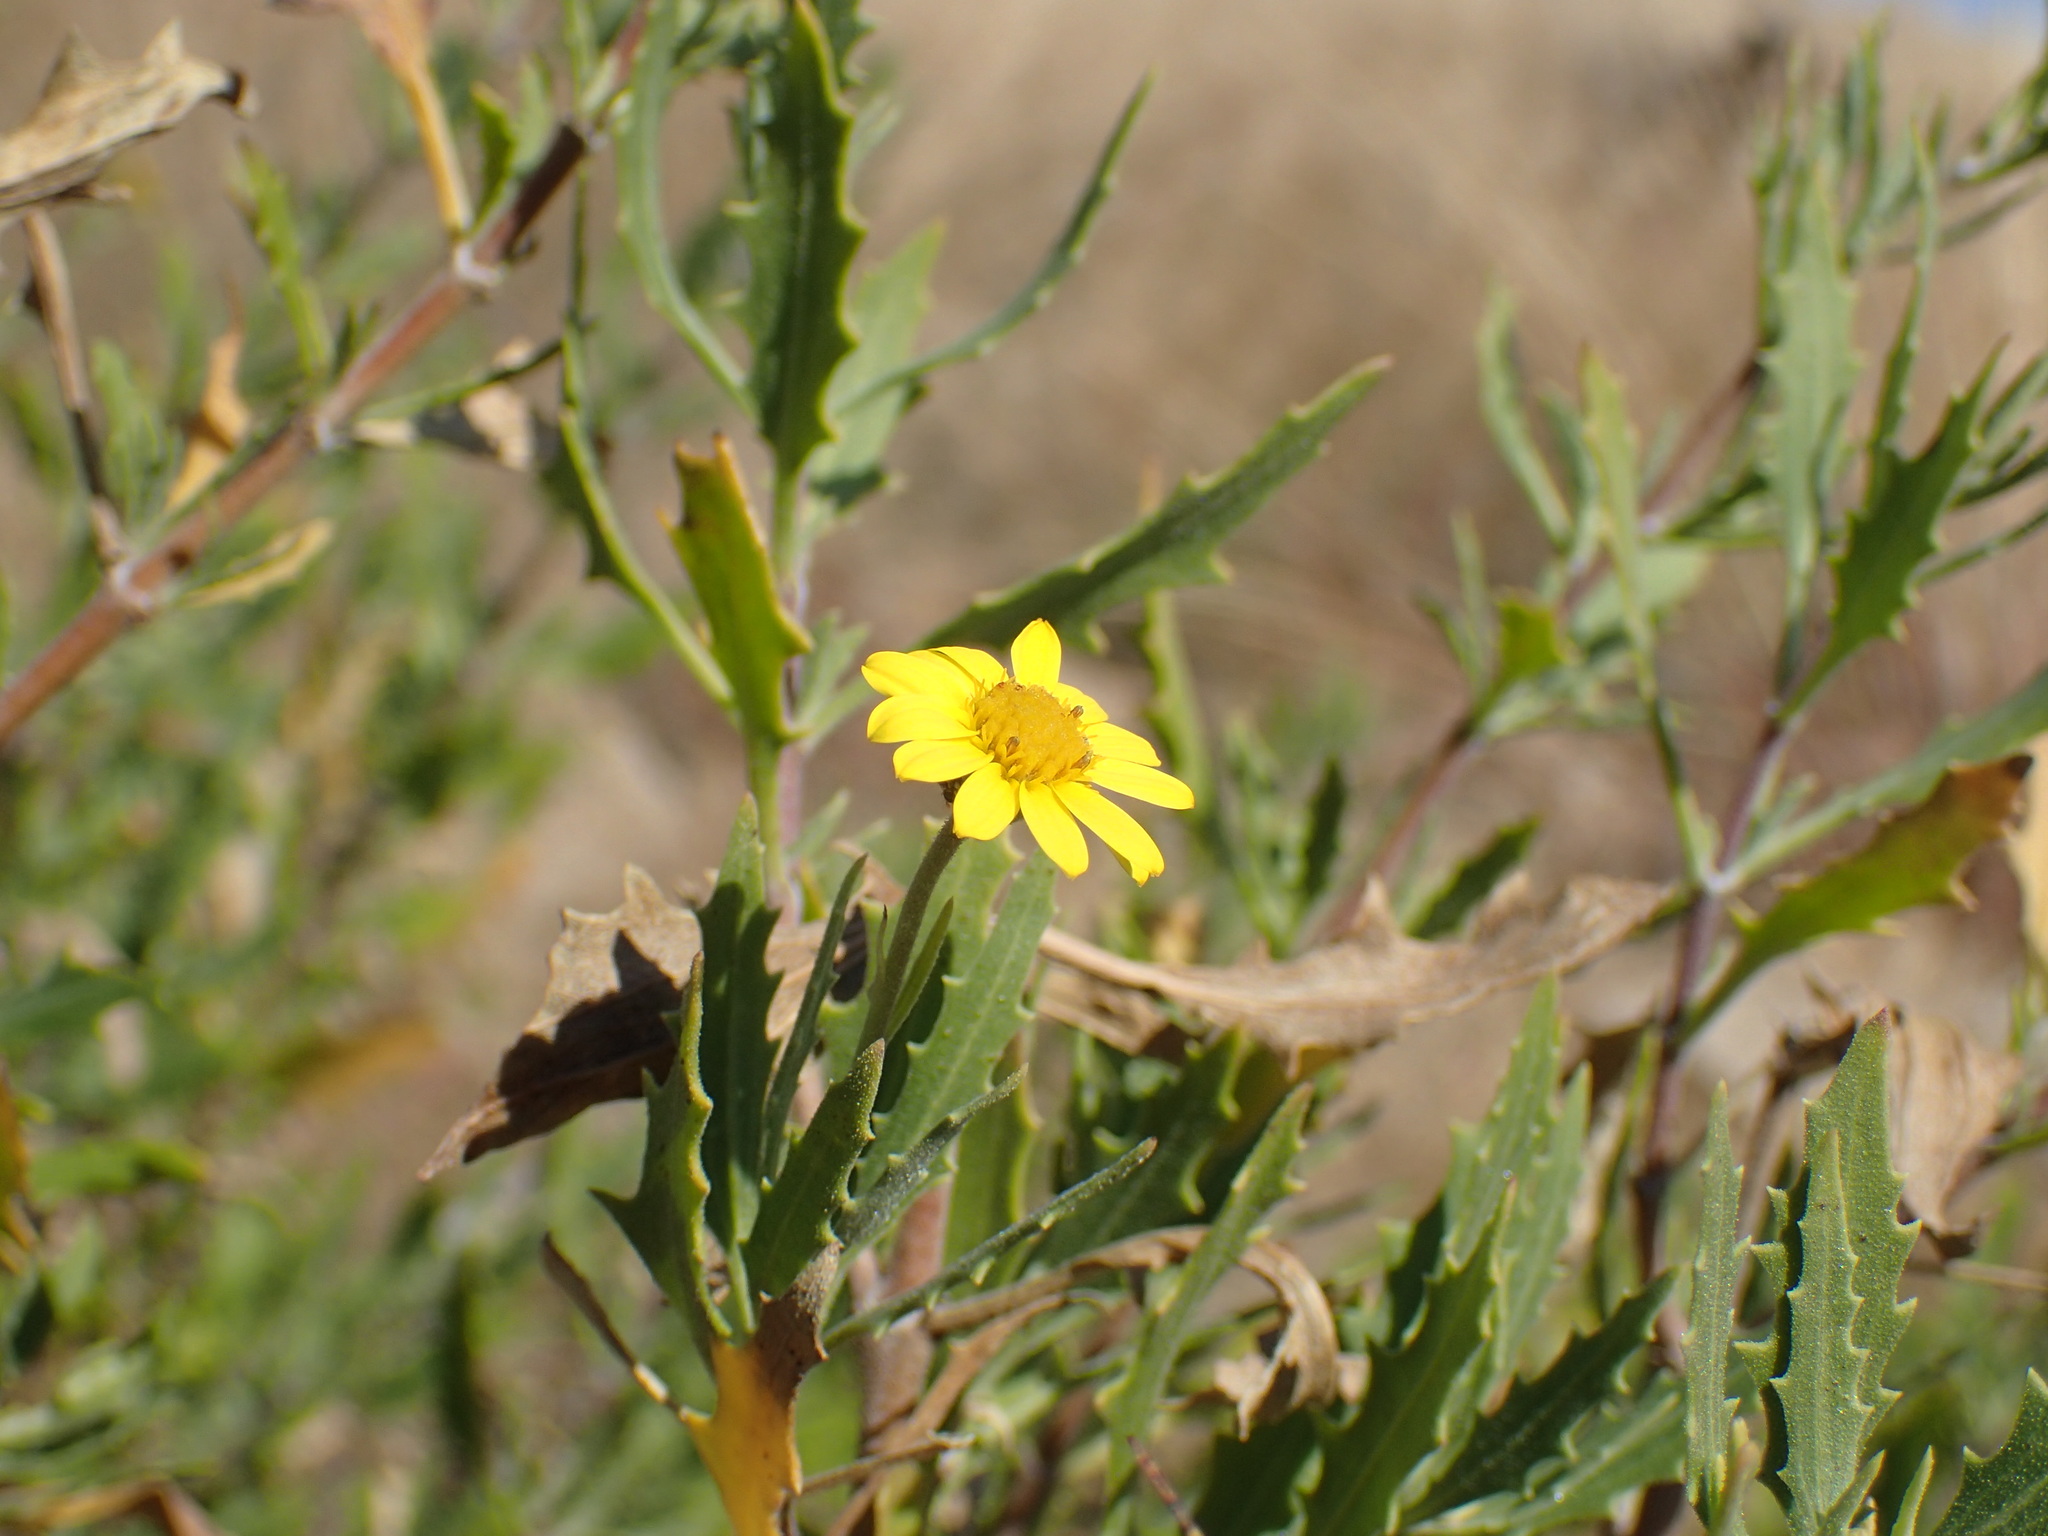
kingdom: Plantae
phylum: Tracheophyta
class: Magnoliopsida
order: Asterales
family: Asteraceae
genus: Osteospermum
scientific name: Osteospermum auriculatum
